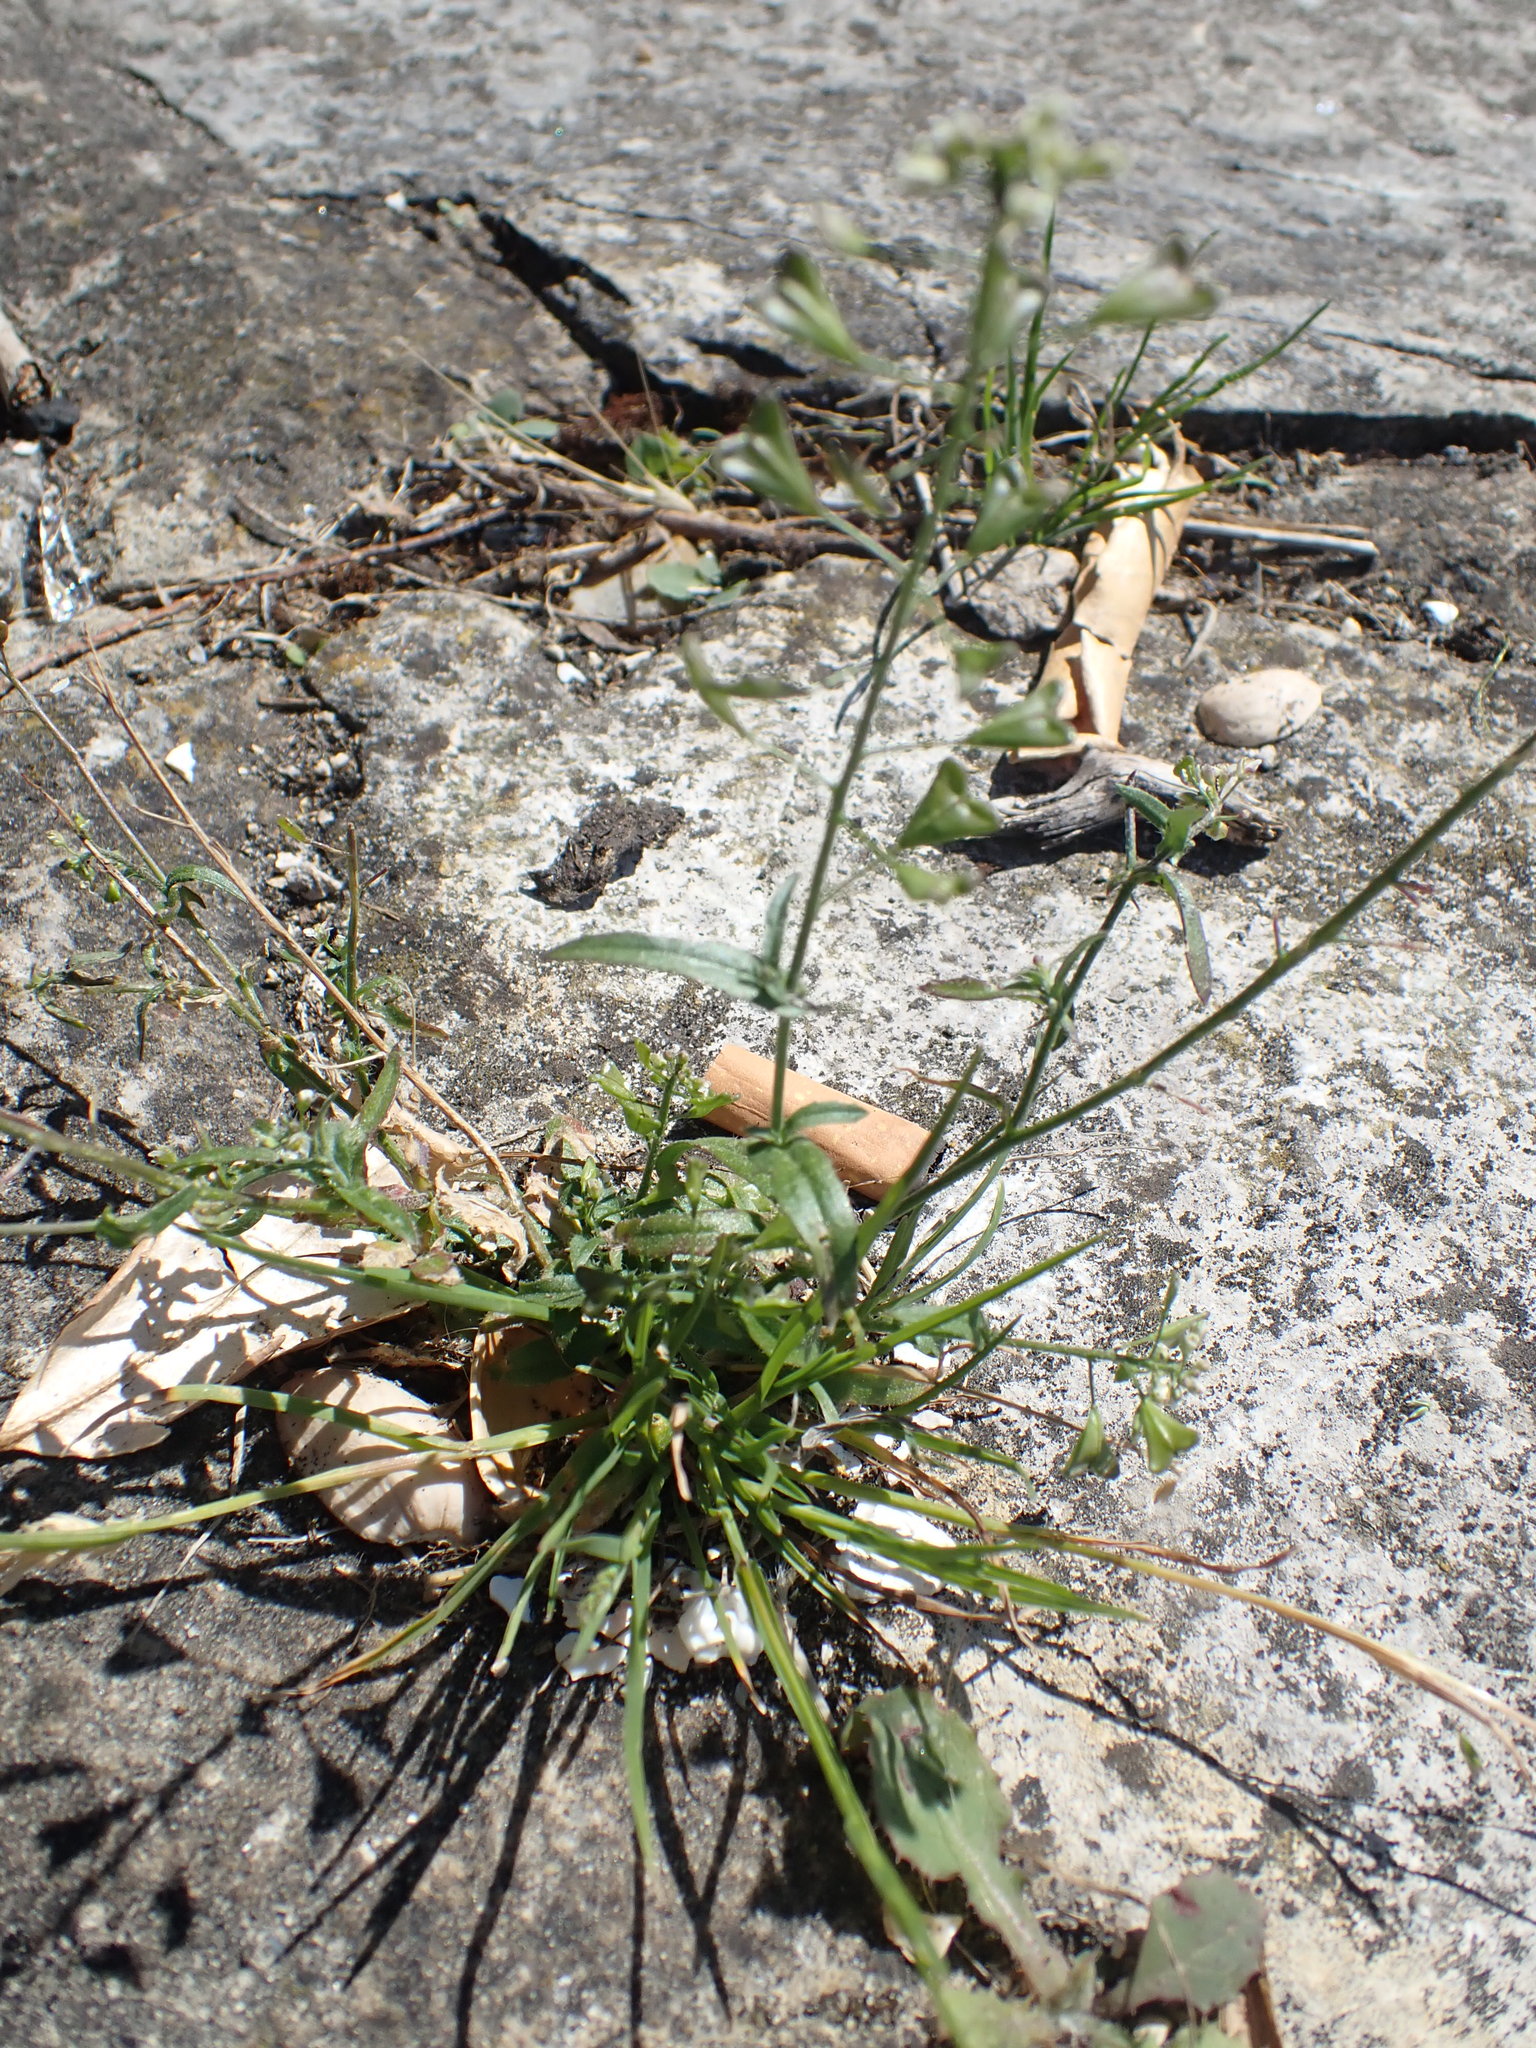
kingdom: Plantae
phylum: Tracheophyta
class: Magnoliopsida
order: Brassicales
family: Brassicaceae
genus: Capsella
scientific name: Capsella bursa-pastoris
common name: Shepherd's purse
